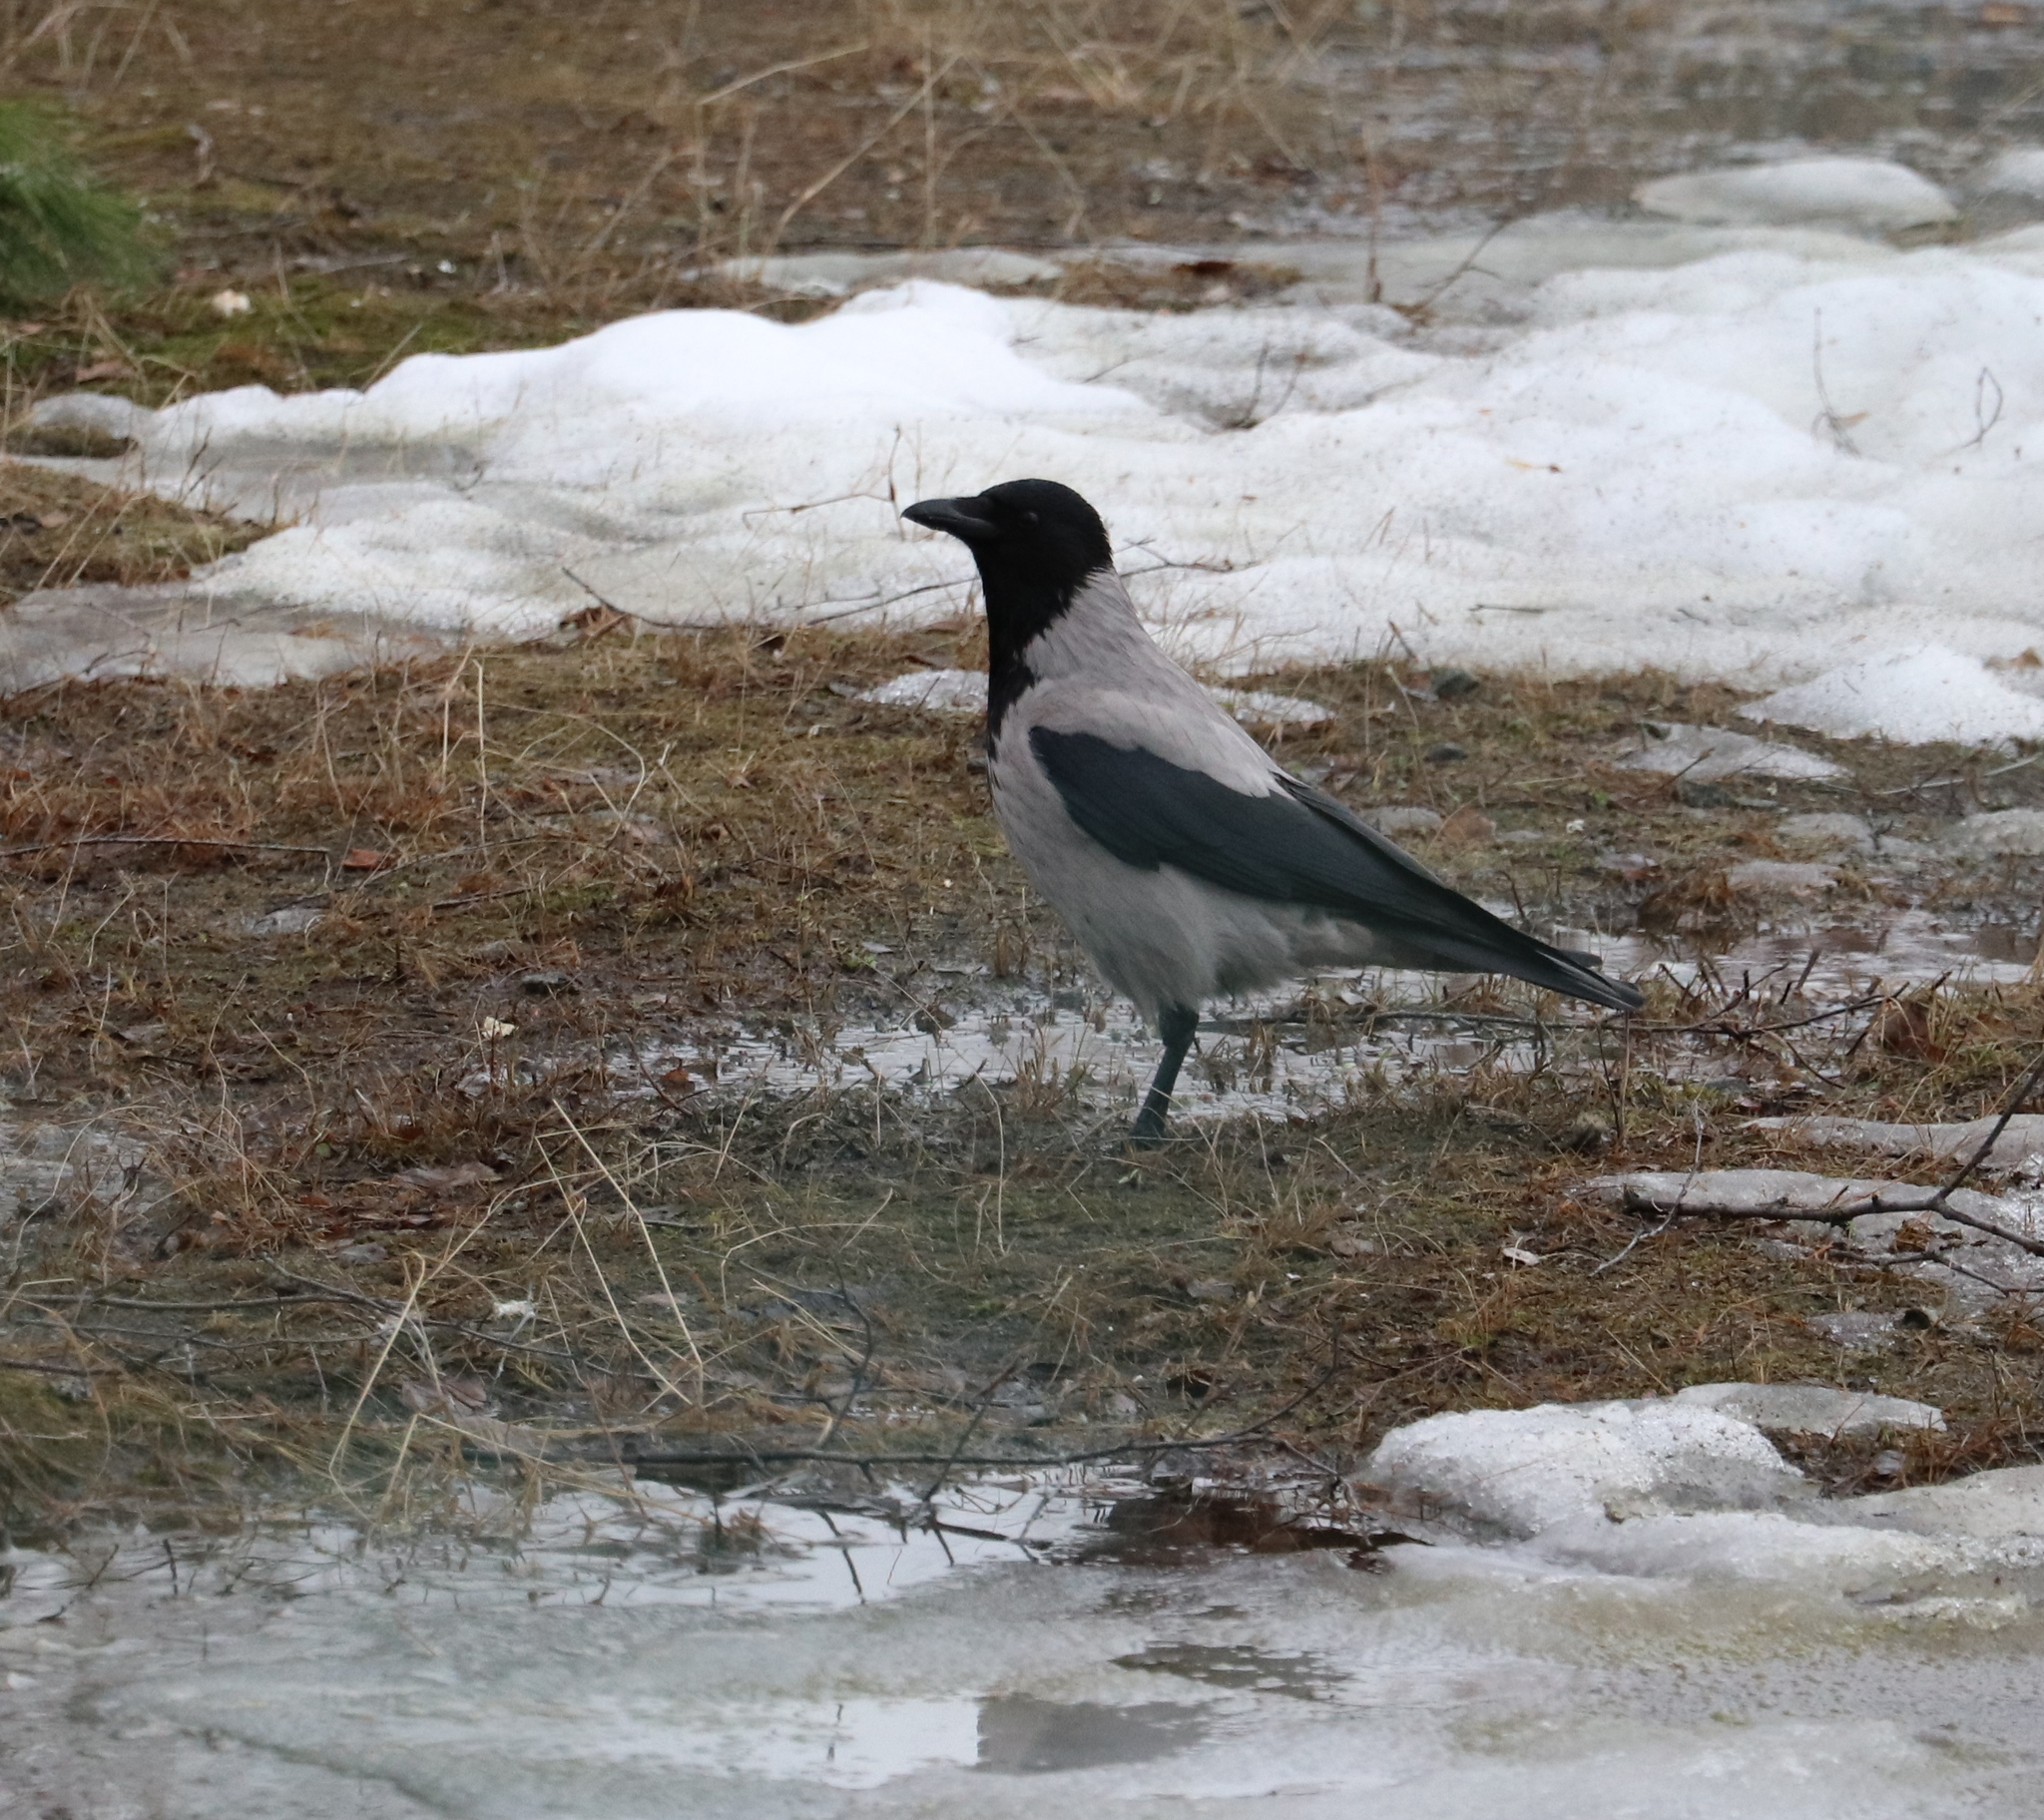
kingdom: Animalia
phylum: Chordata
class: Aves
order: Passeriformes
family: Corvidae
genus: Corvus
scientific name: Corvus cornix
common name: Hooded crow
